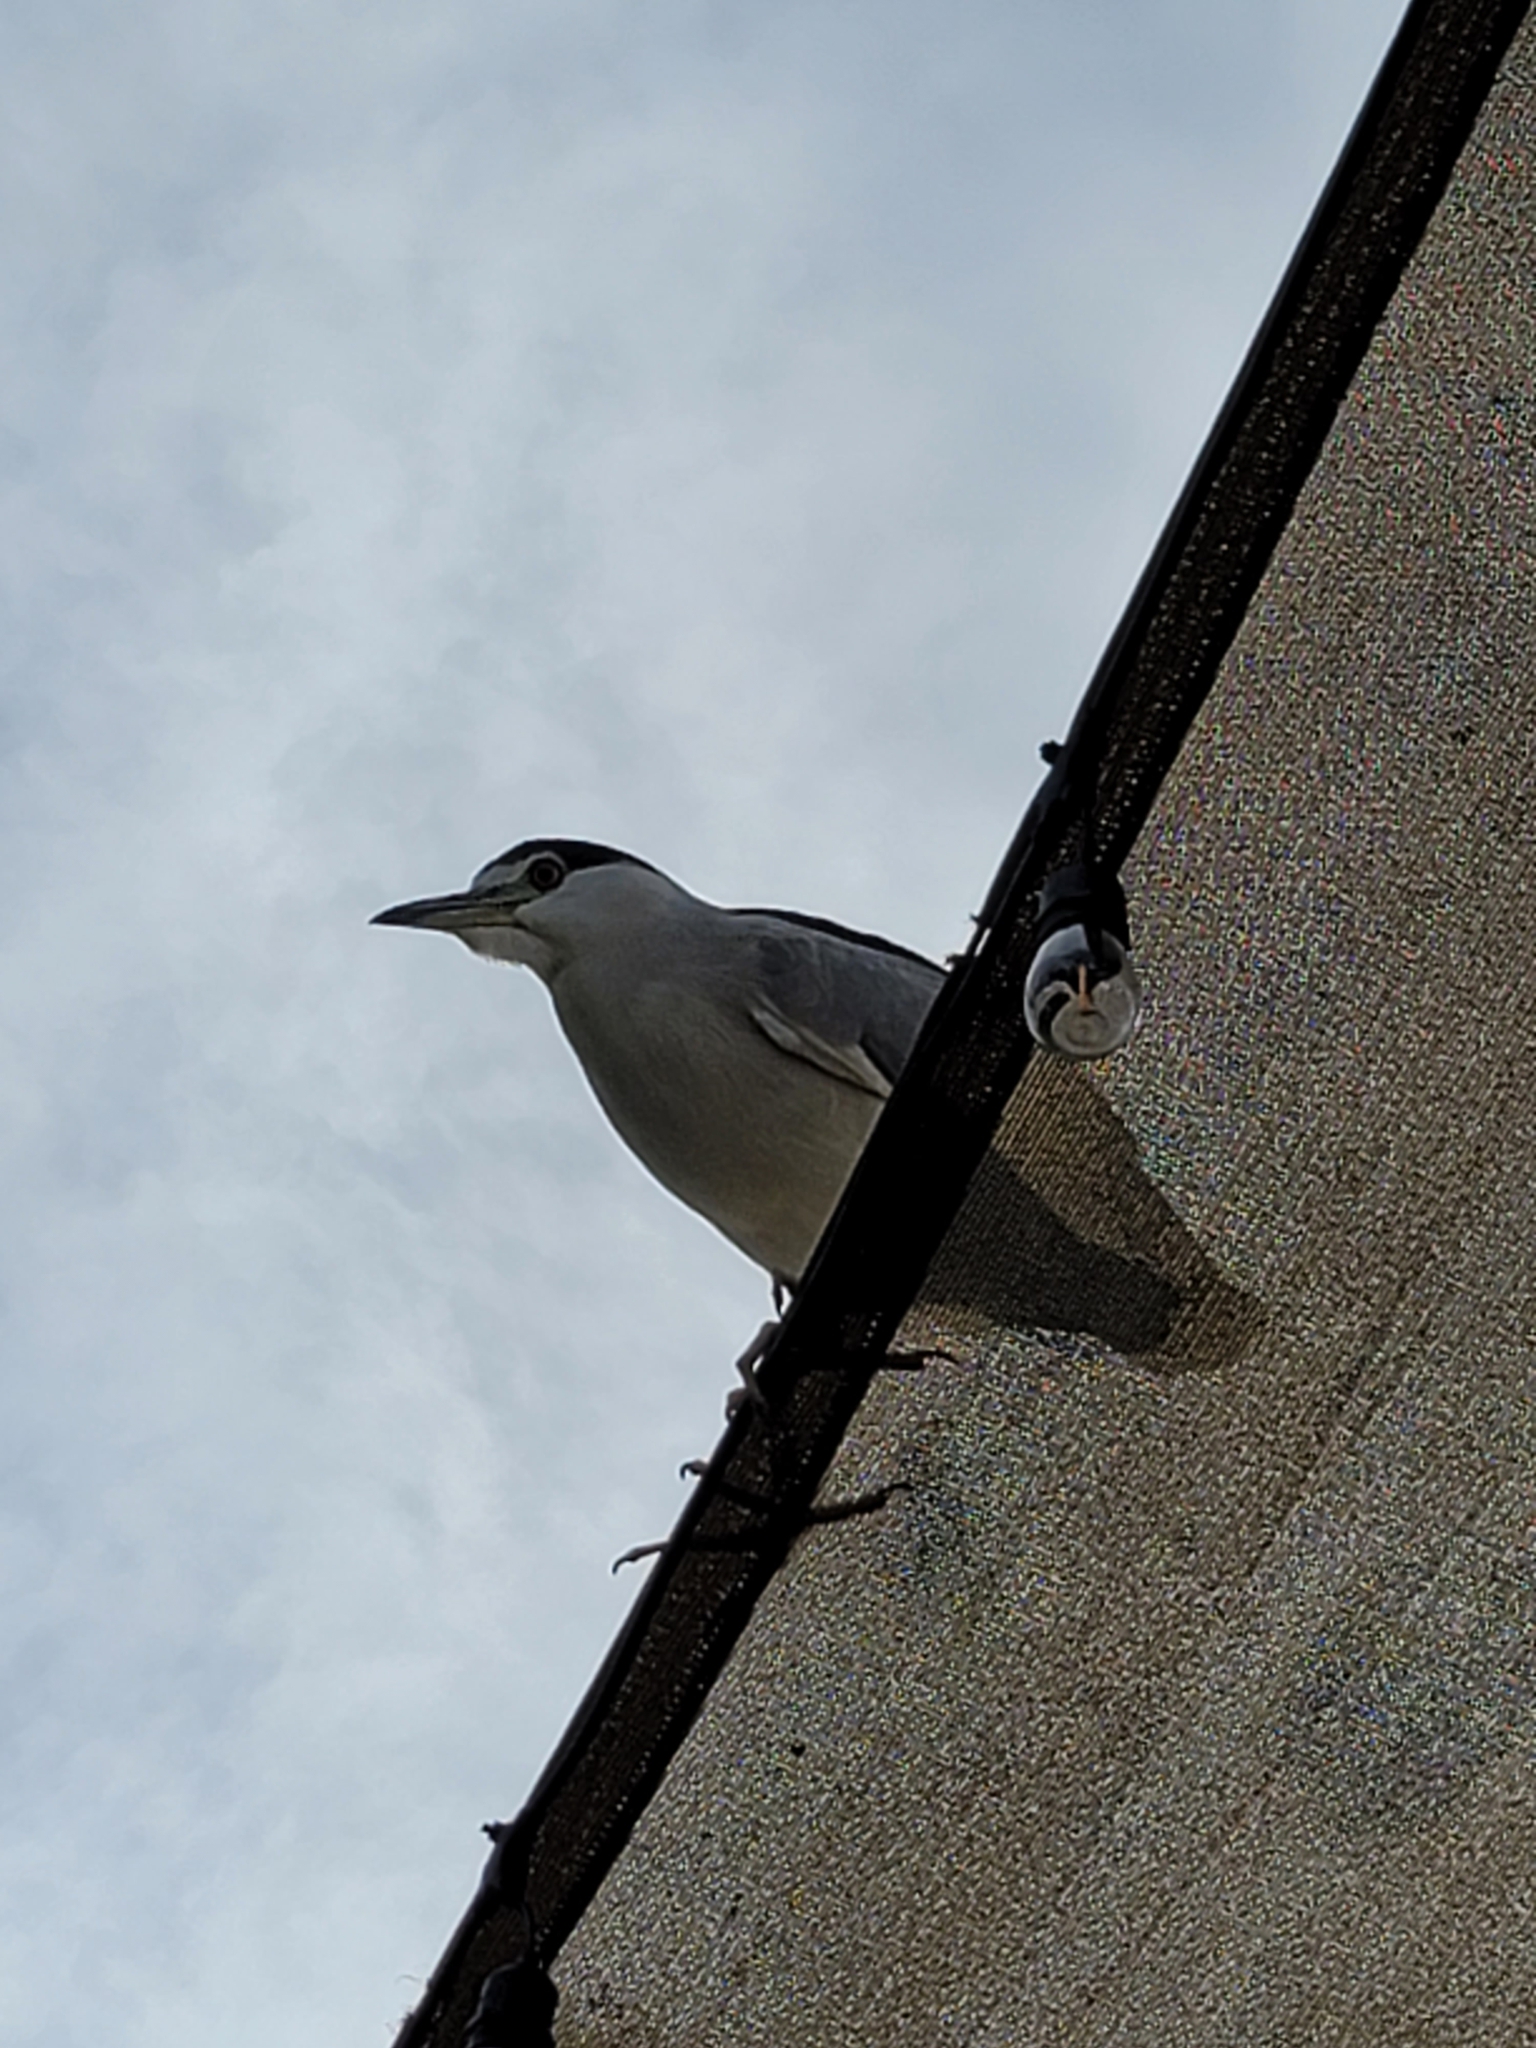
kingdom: Animalia
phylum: Chordata
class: Aves
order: Pelecaniformes
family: Ardeidae
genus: Nycticorax
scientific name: Nycticorax nycticorax
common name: Black-crowned night heron
